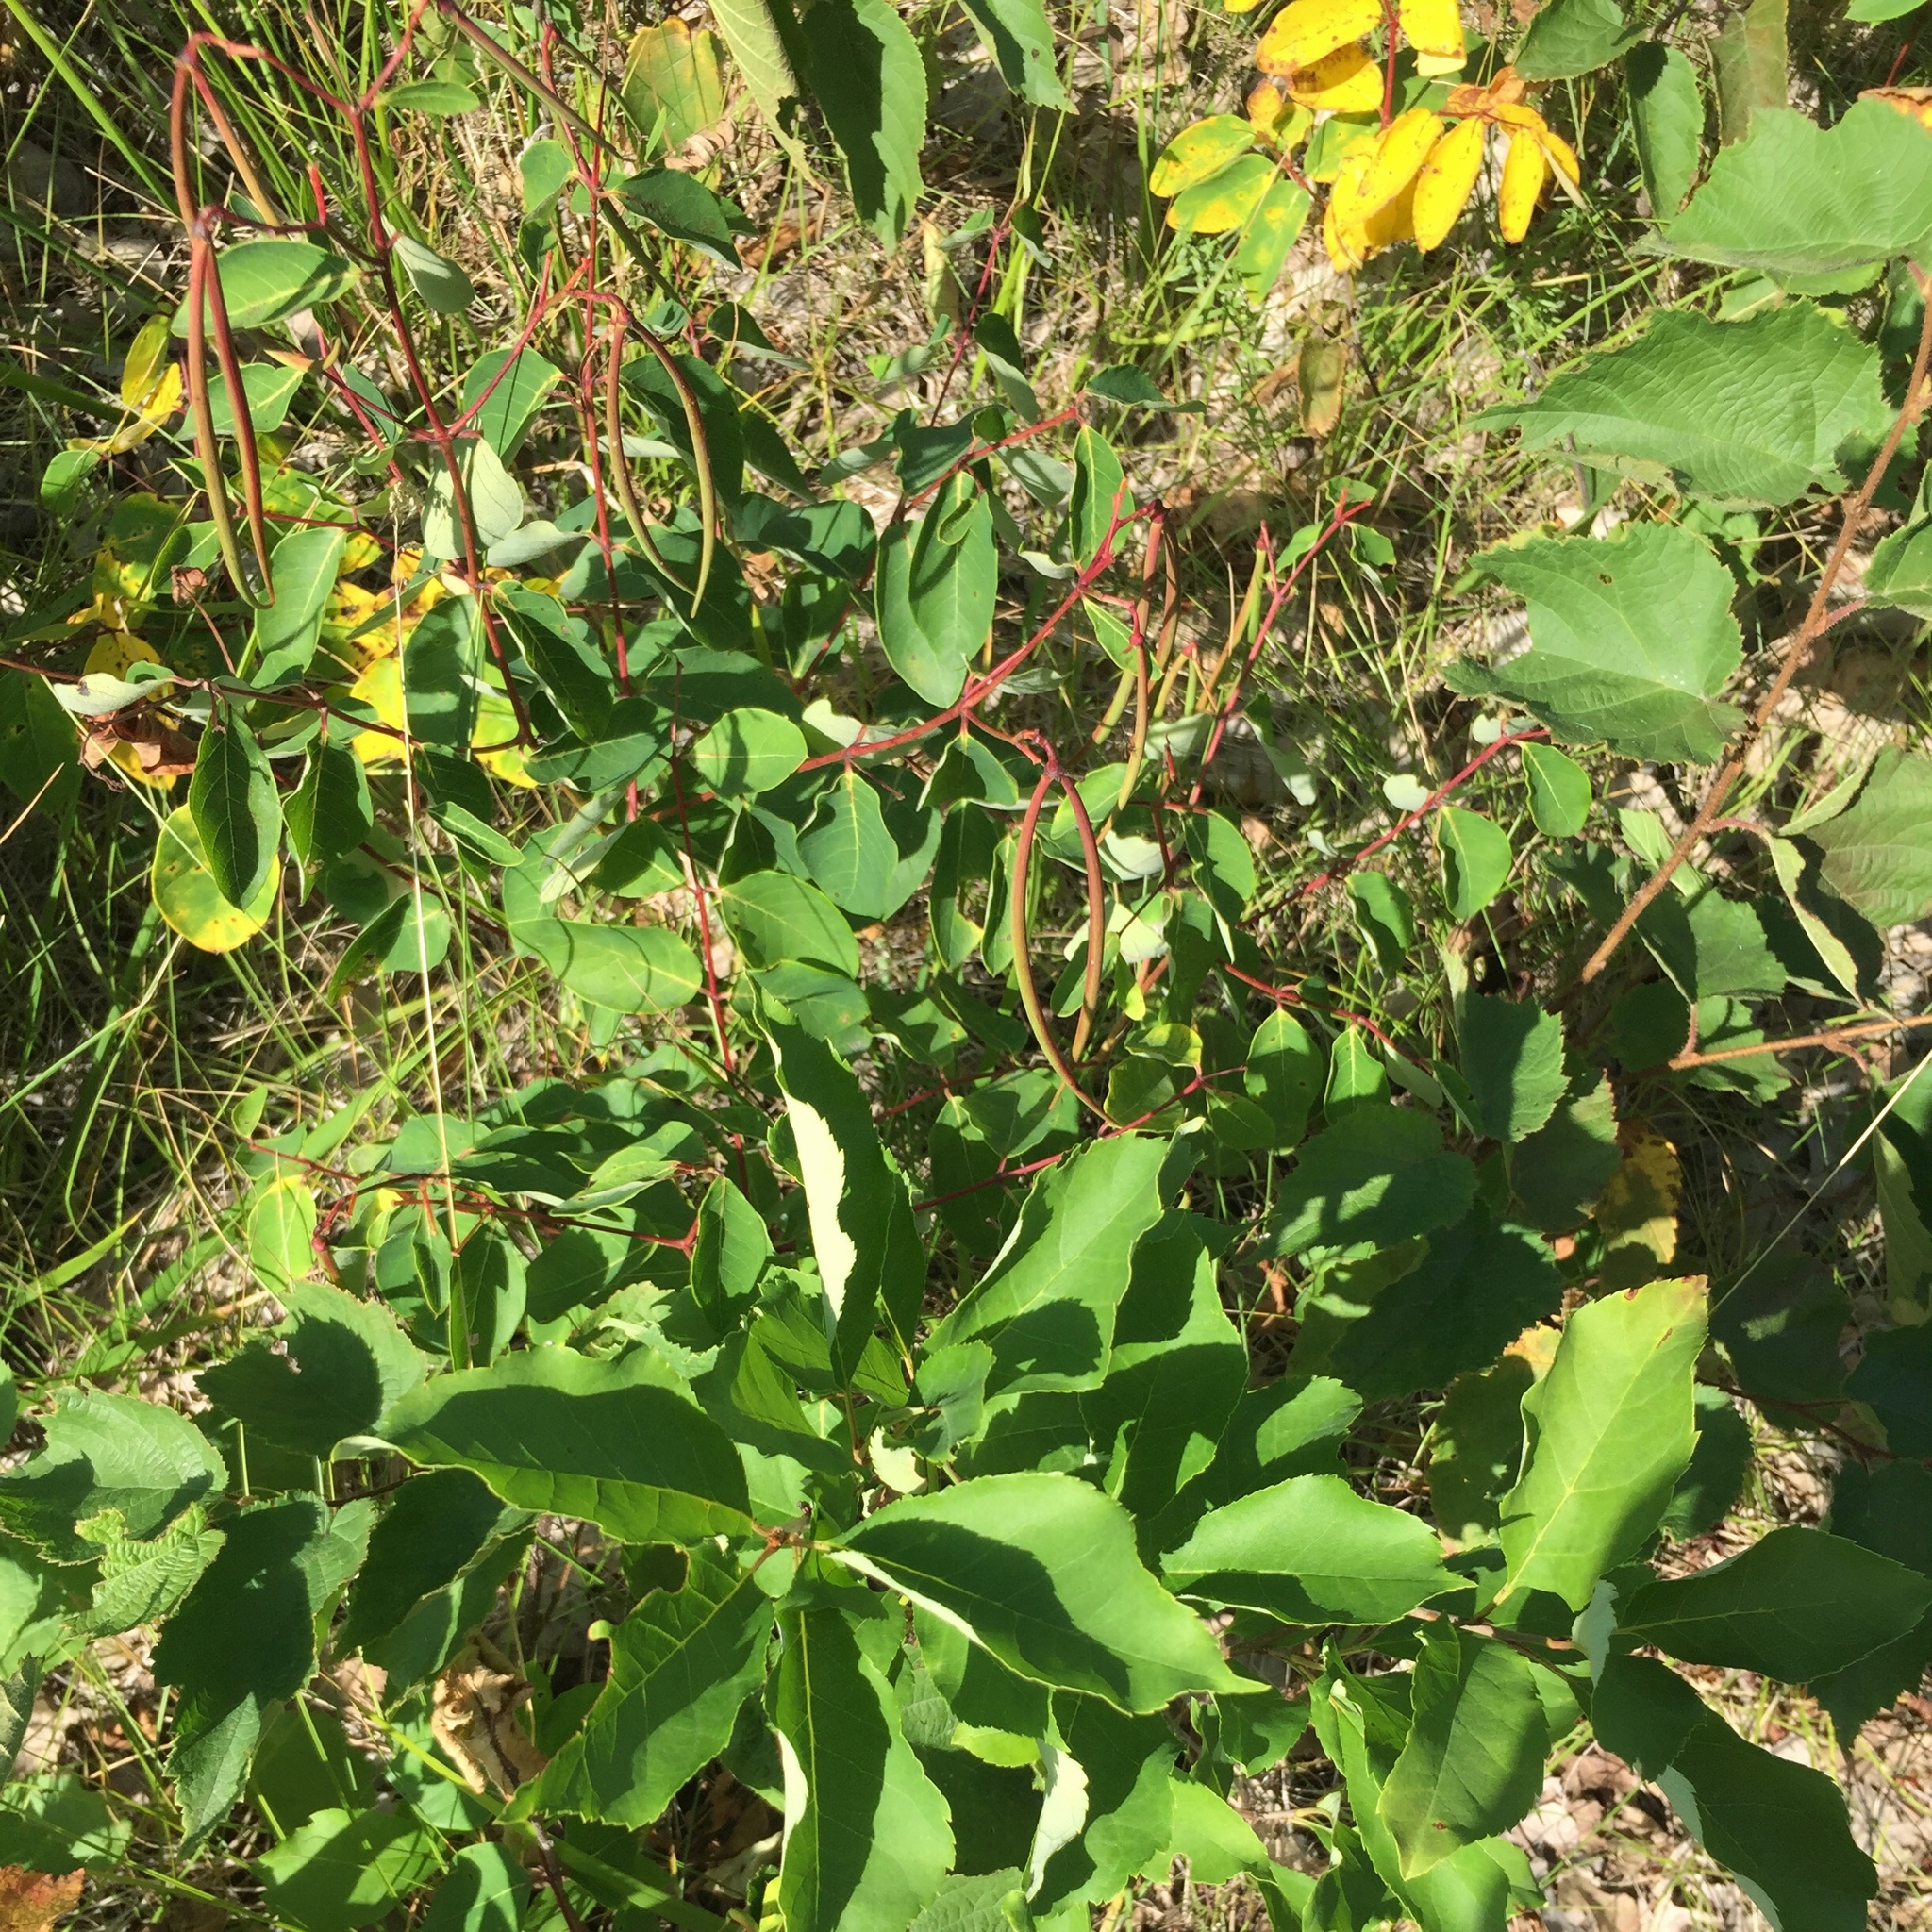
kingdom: Plantae
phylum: Tracheophyta
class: Magnoliopsida
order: Gentianales
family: Apocynaceae
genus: Apocynum
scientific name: Apocynum cannabinum
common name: Hemp dogbane
